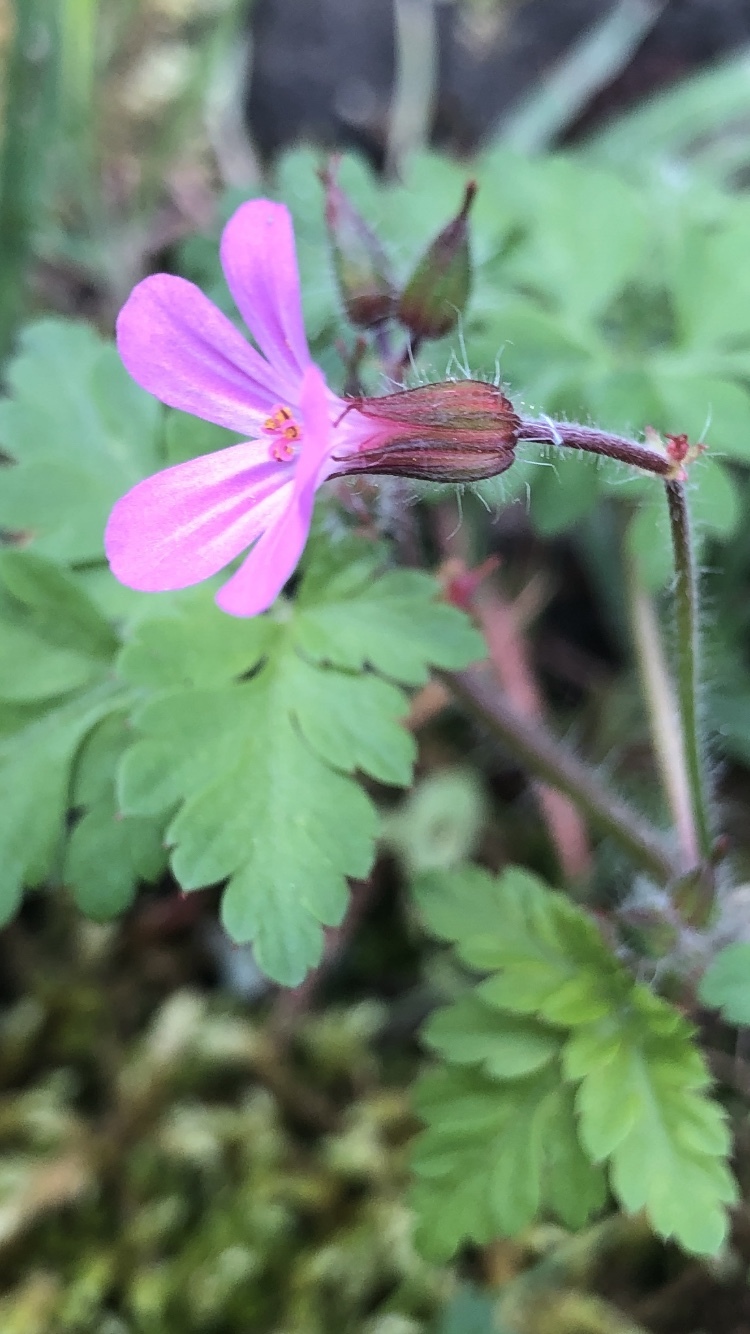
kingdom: Plantae
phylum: Tracheophyta
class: Magnoliopsida
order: Geraniales
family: Geraniaceae
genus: Geranium
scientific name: Geranium robertianum
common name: Herb-robert
